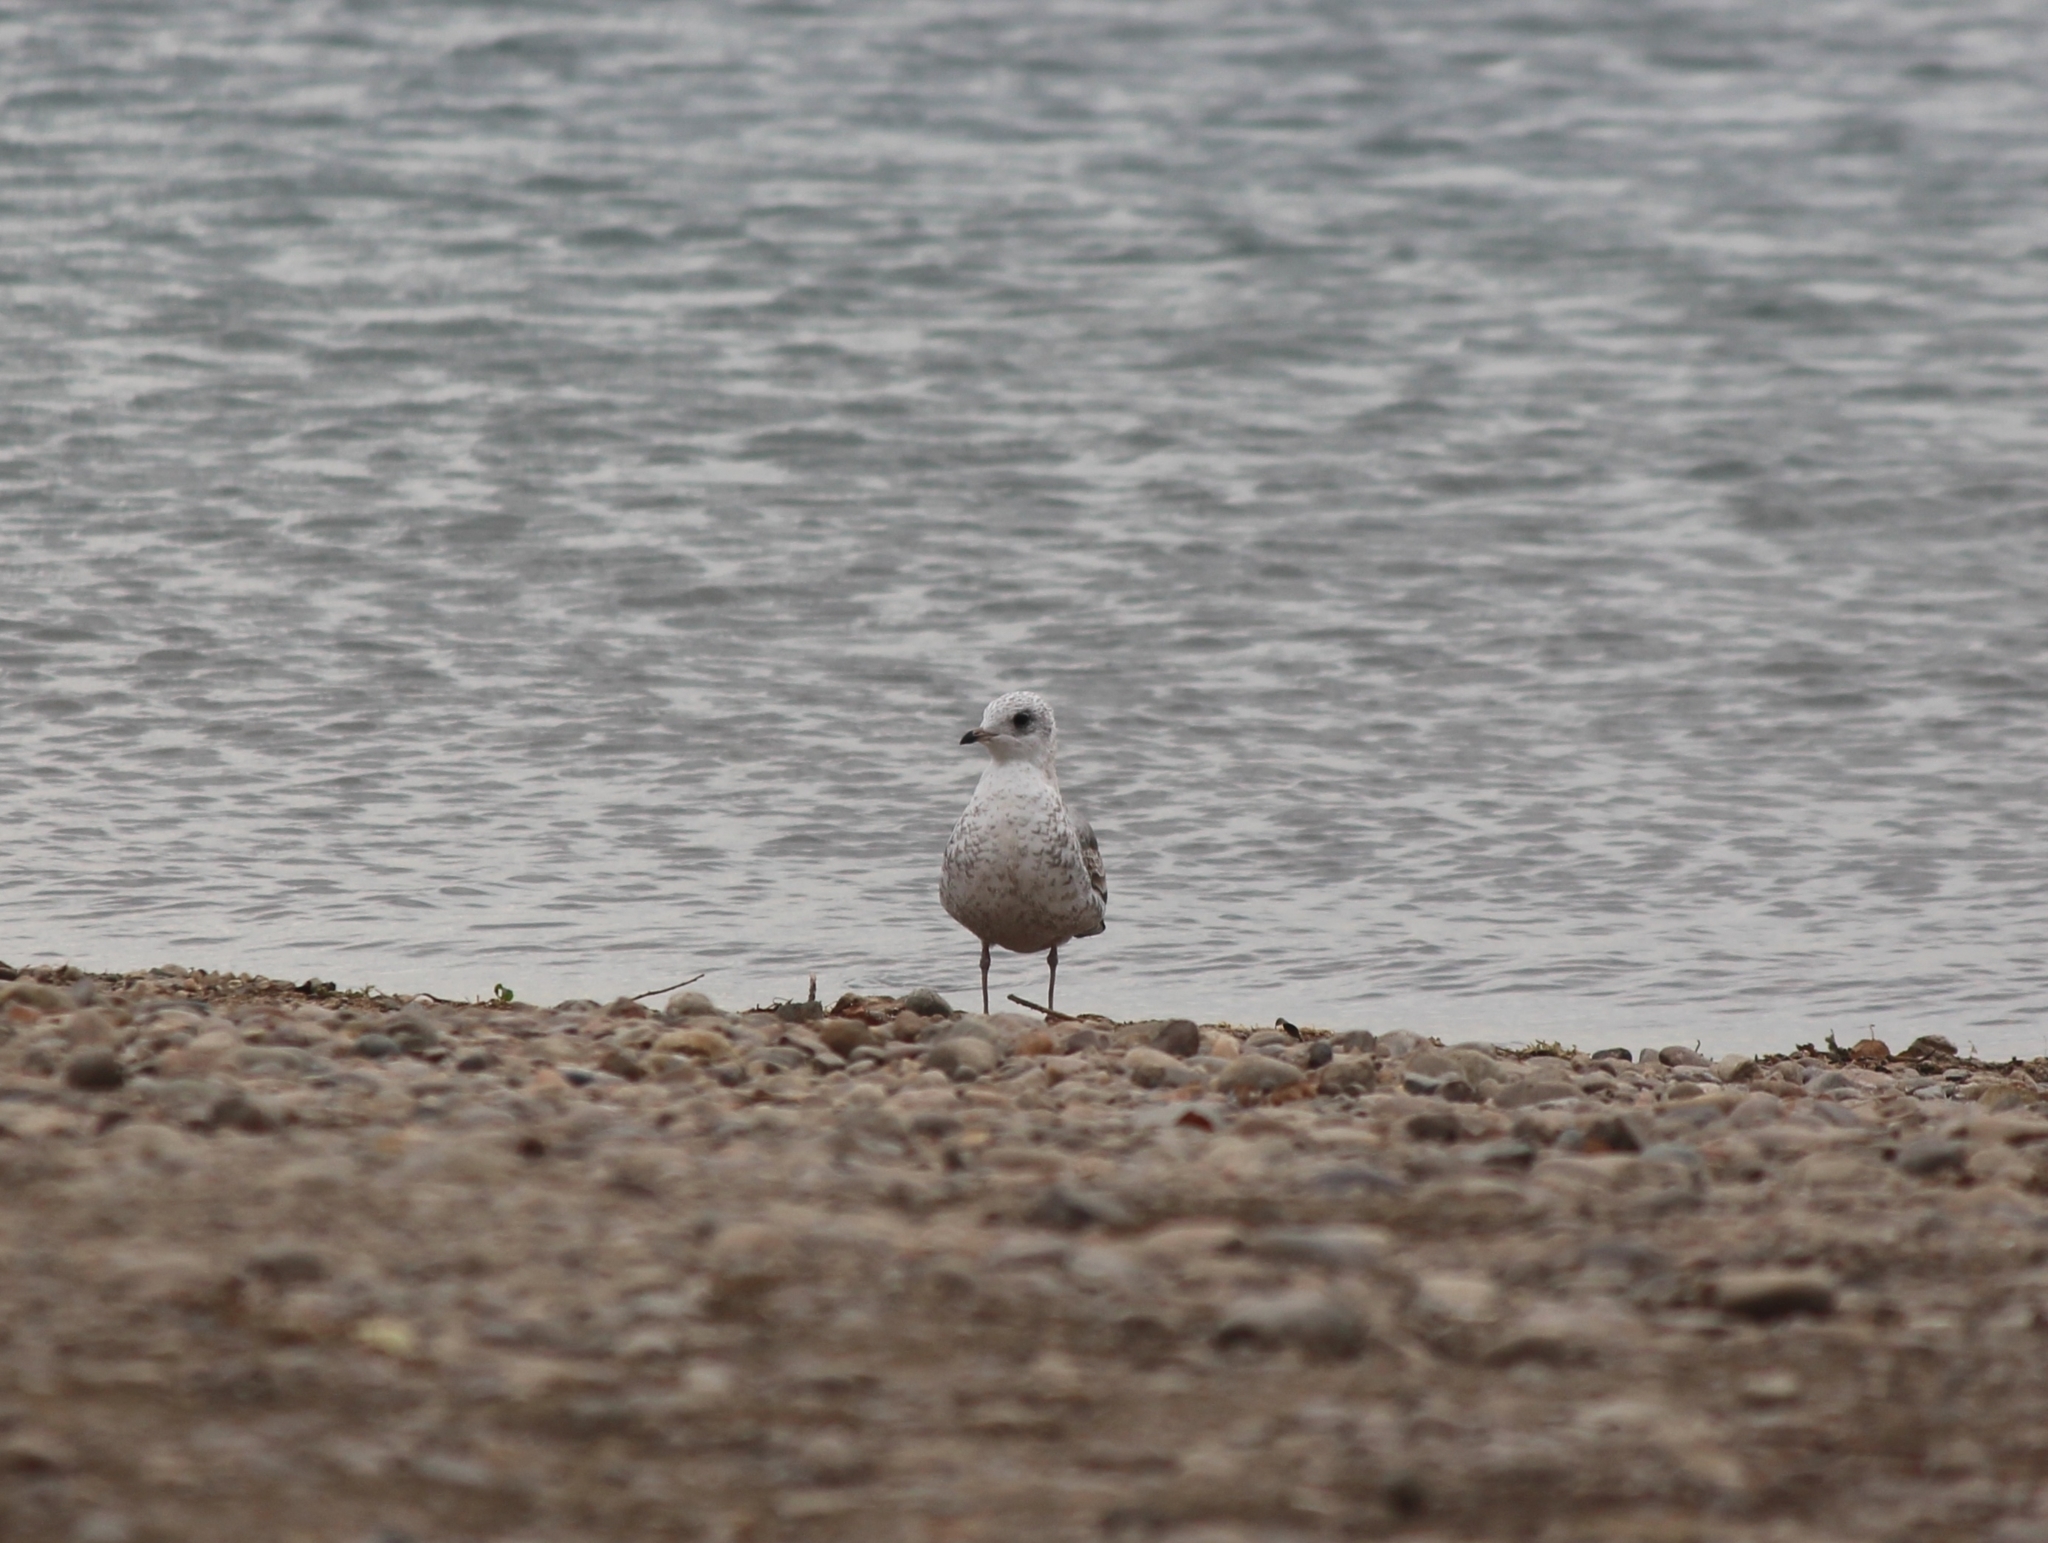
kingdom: Animalia
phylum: Chordata
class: Aves
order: Charadriiformes
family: Laridae
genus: Larus
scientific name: Larus canus
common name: Mew gull
